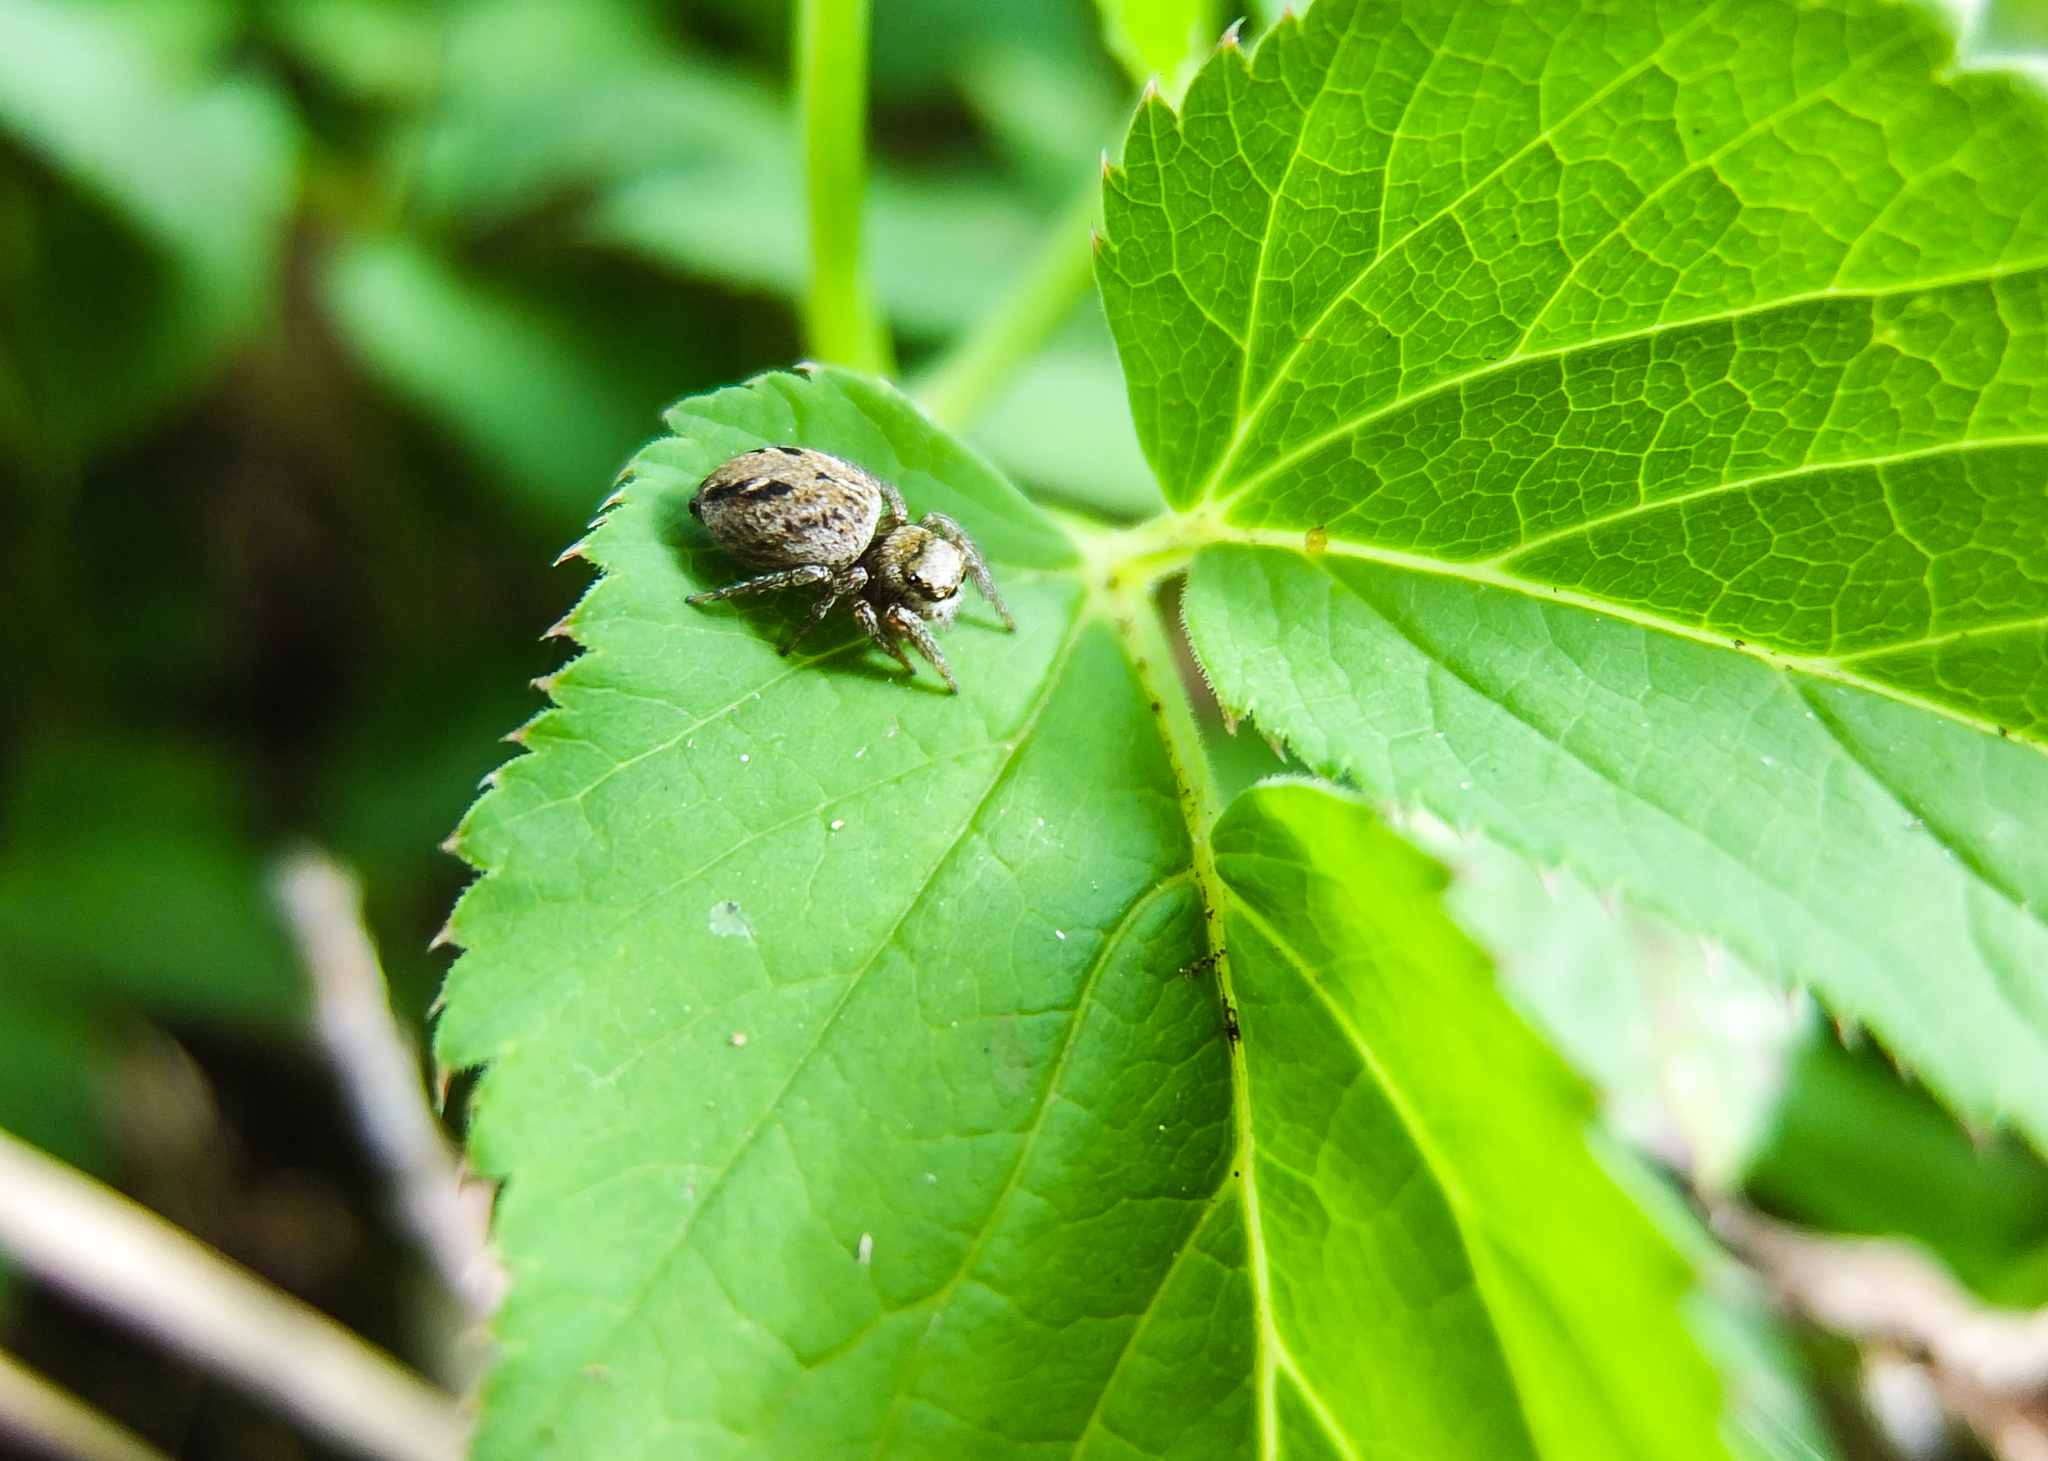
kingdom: Animalia
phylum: Arthropoda
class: Arachnida
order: Araneae
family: Salticidae
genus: Evarcha
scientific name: Evarcha arcuata
